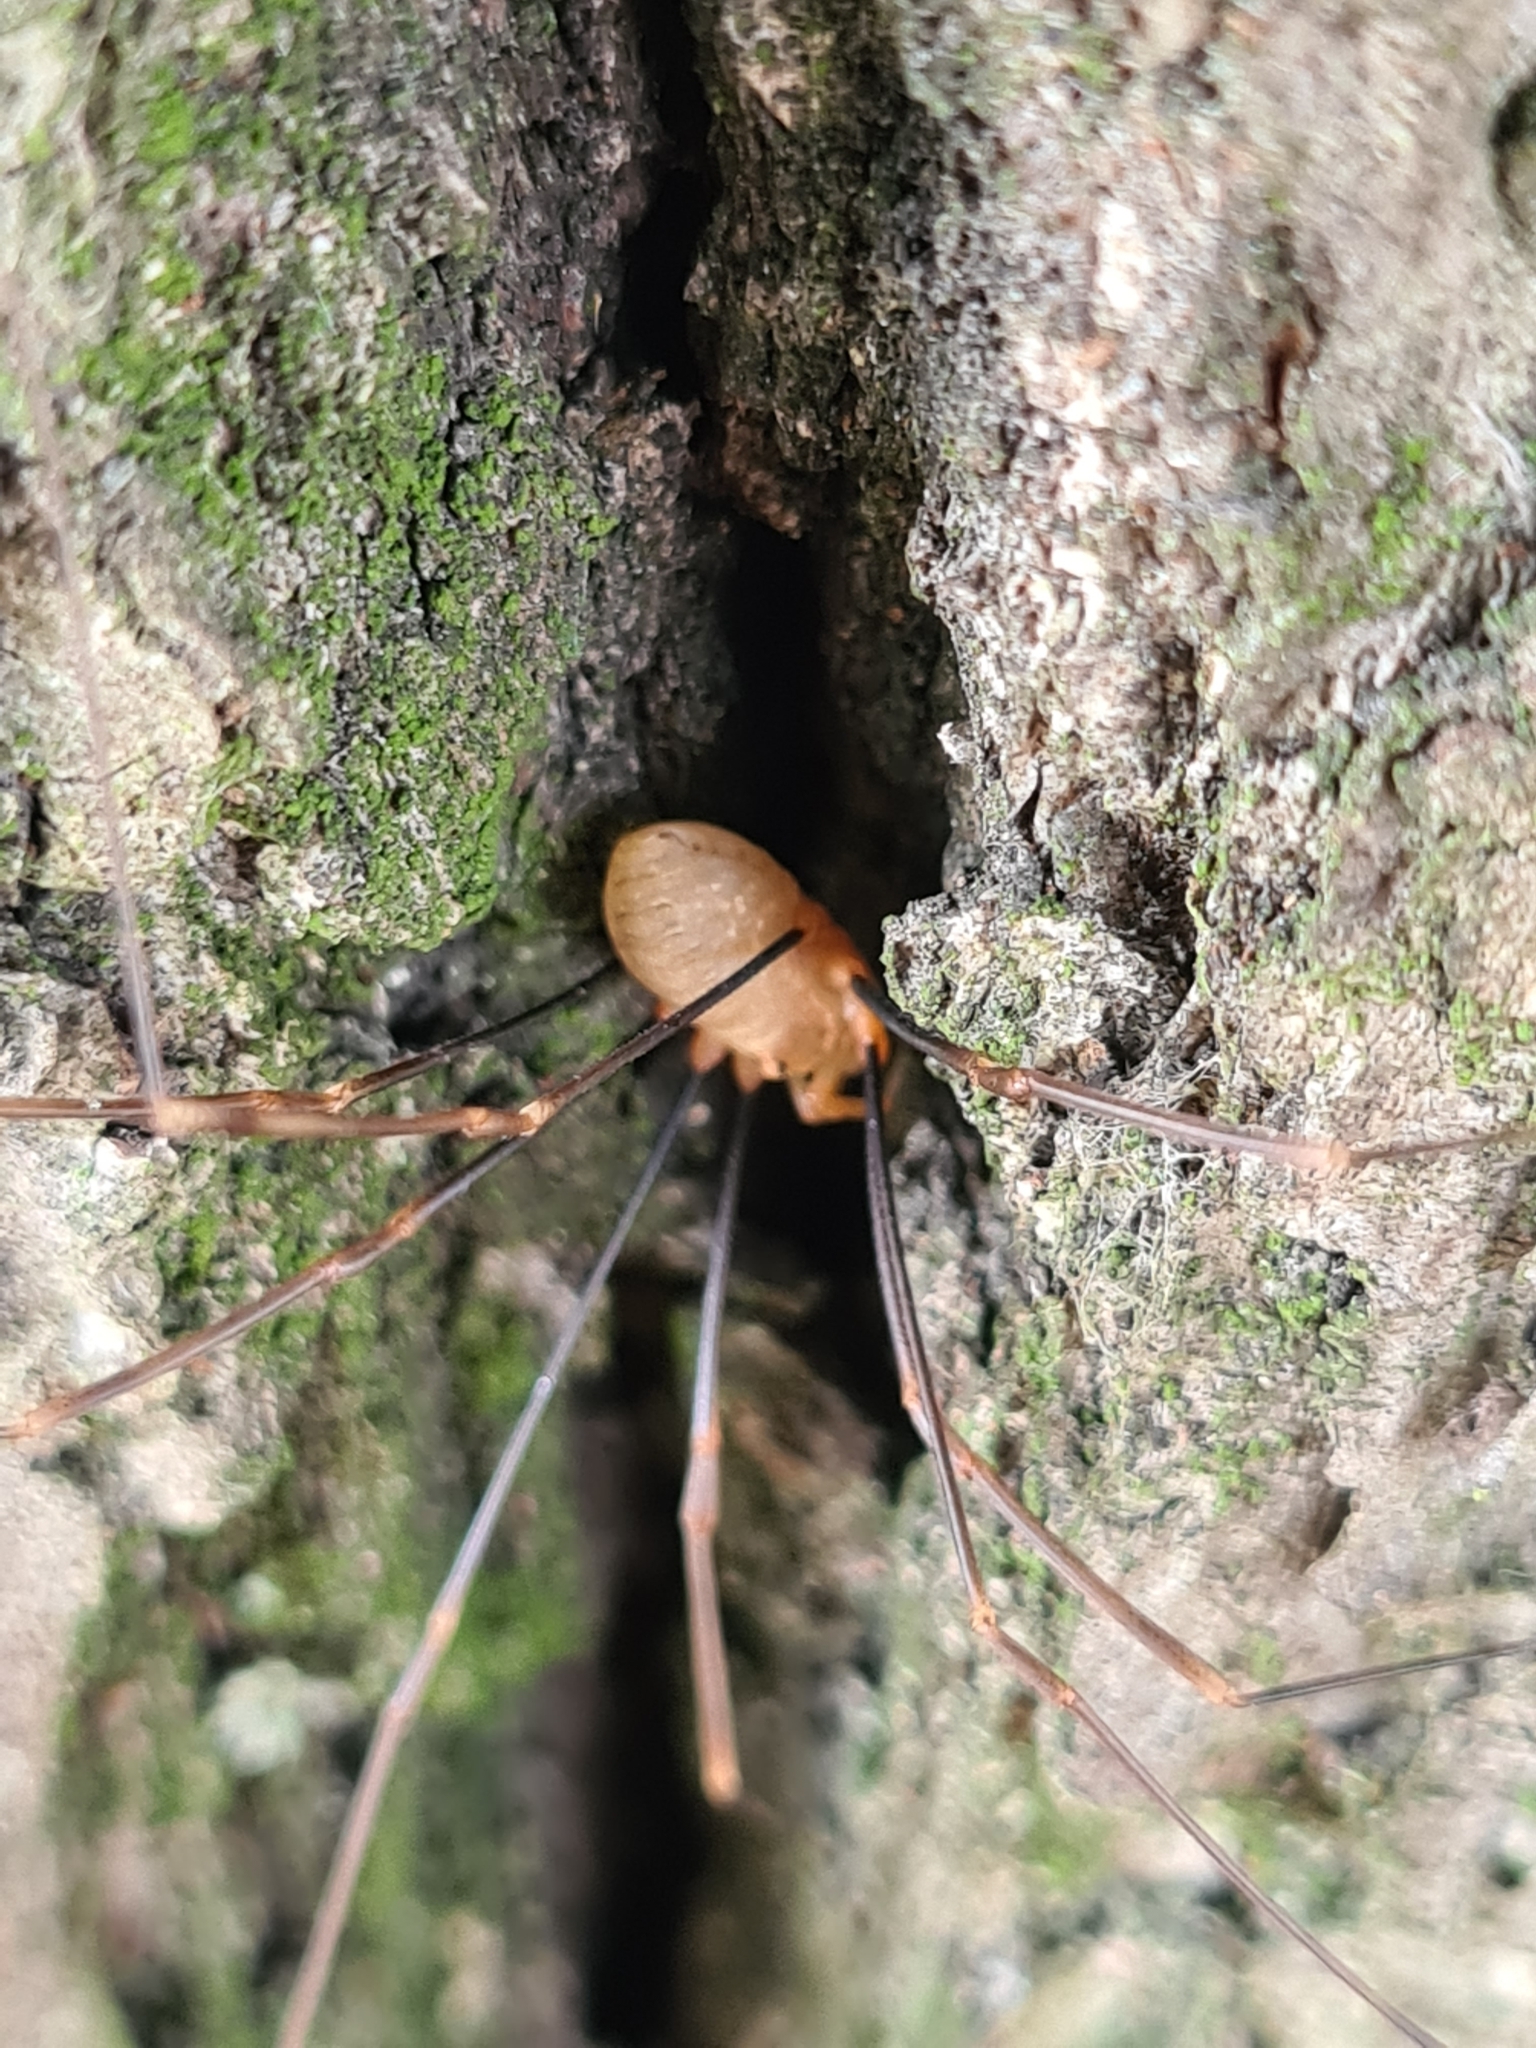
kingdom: Animalia
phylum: Arthropoda
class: Arachnida
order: Opiliones
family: Phalangiidae
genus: Opilio
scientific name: Opilio canestrinii
